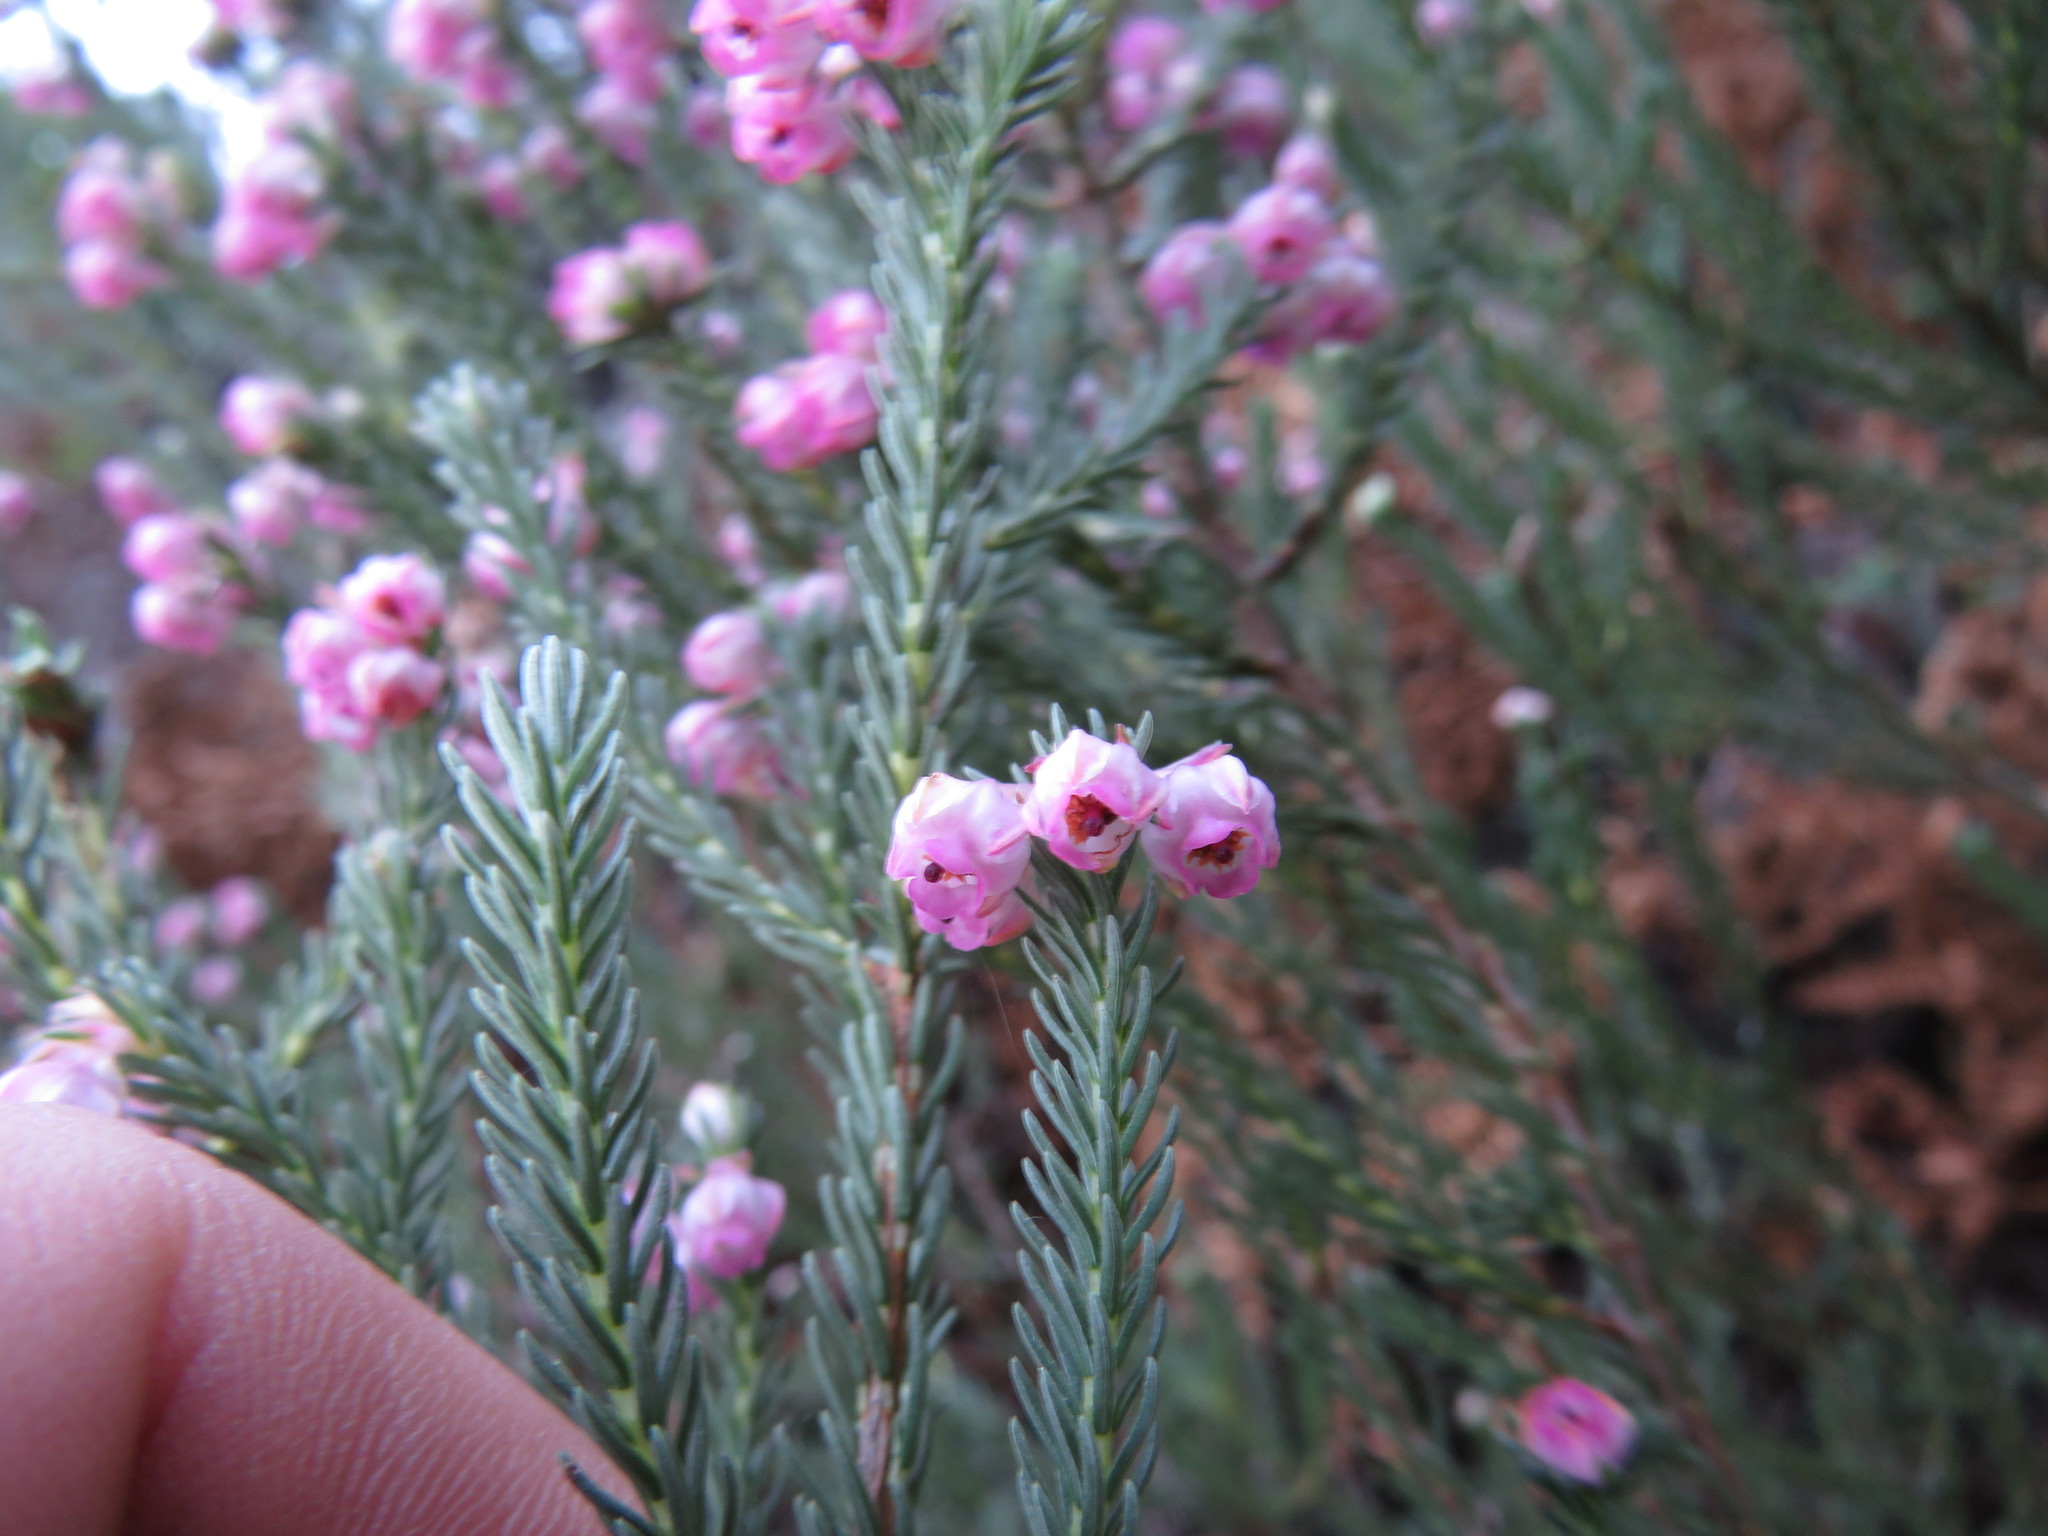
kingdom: Plantae
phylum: Tracheophyta
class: Magnoliopsida
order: Ericales
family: Ericaceae
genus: Erica
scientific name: Erica baccans
